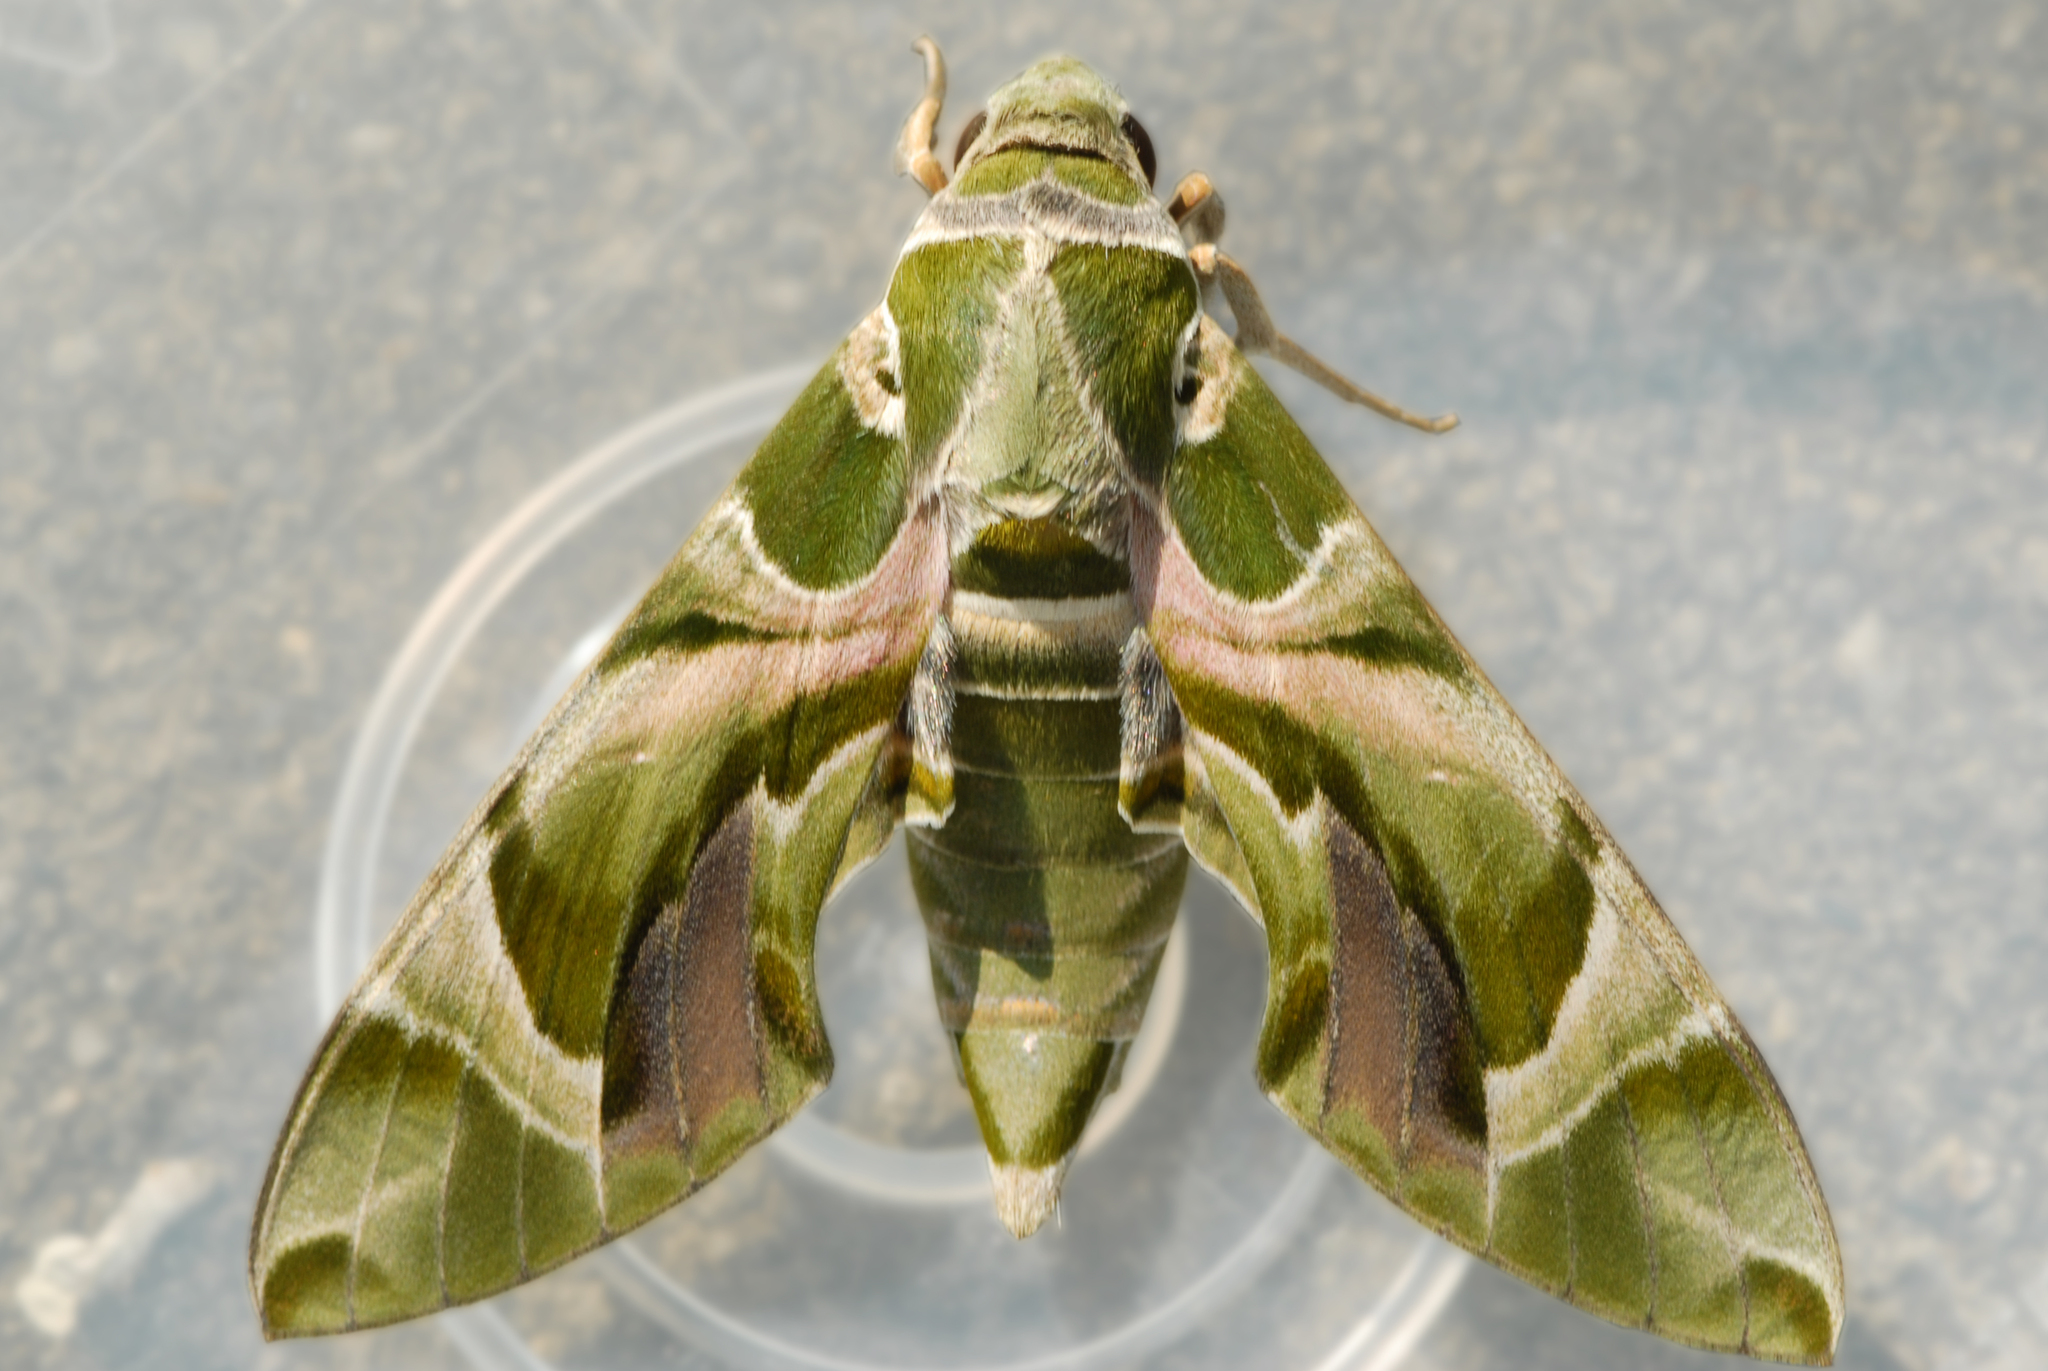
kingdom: Animalia
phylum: Arthropoda
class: Insecta
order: Lepidoptera
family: Sphingidae
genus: Daphnis
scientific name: Daphnis nerii
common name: Oleander hawk-moth
